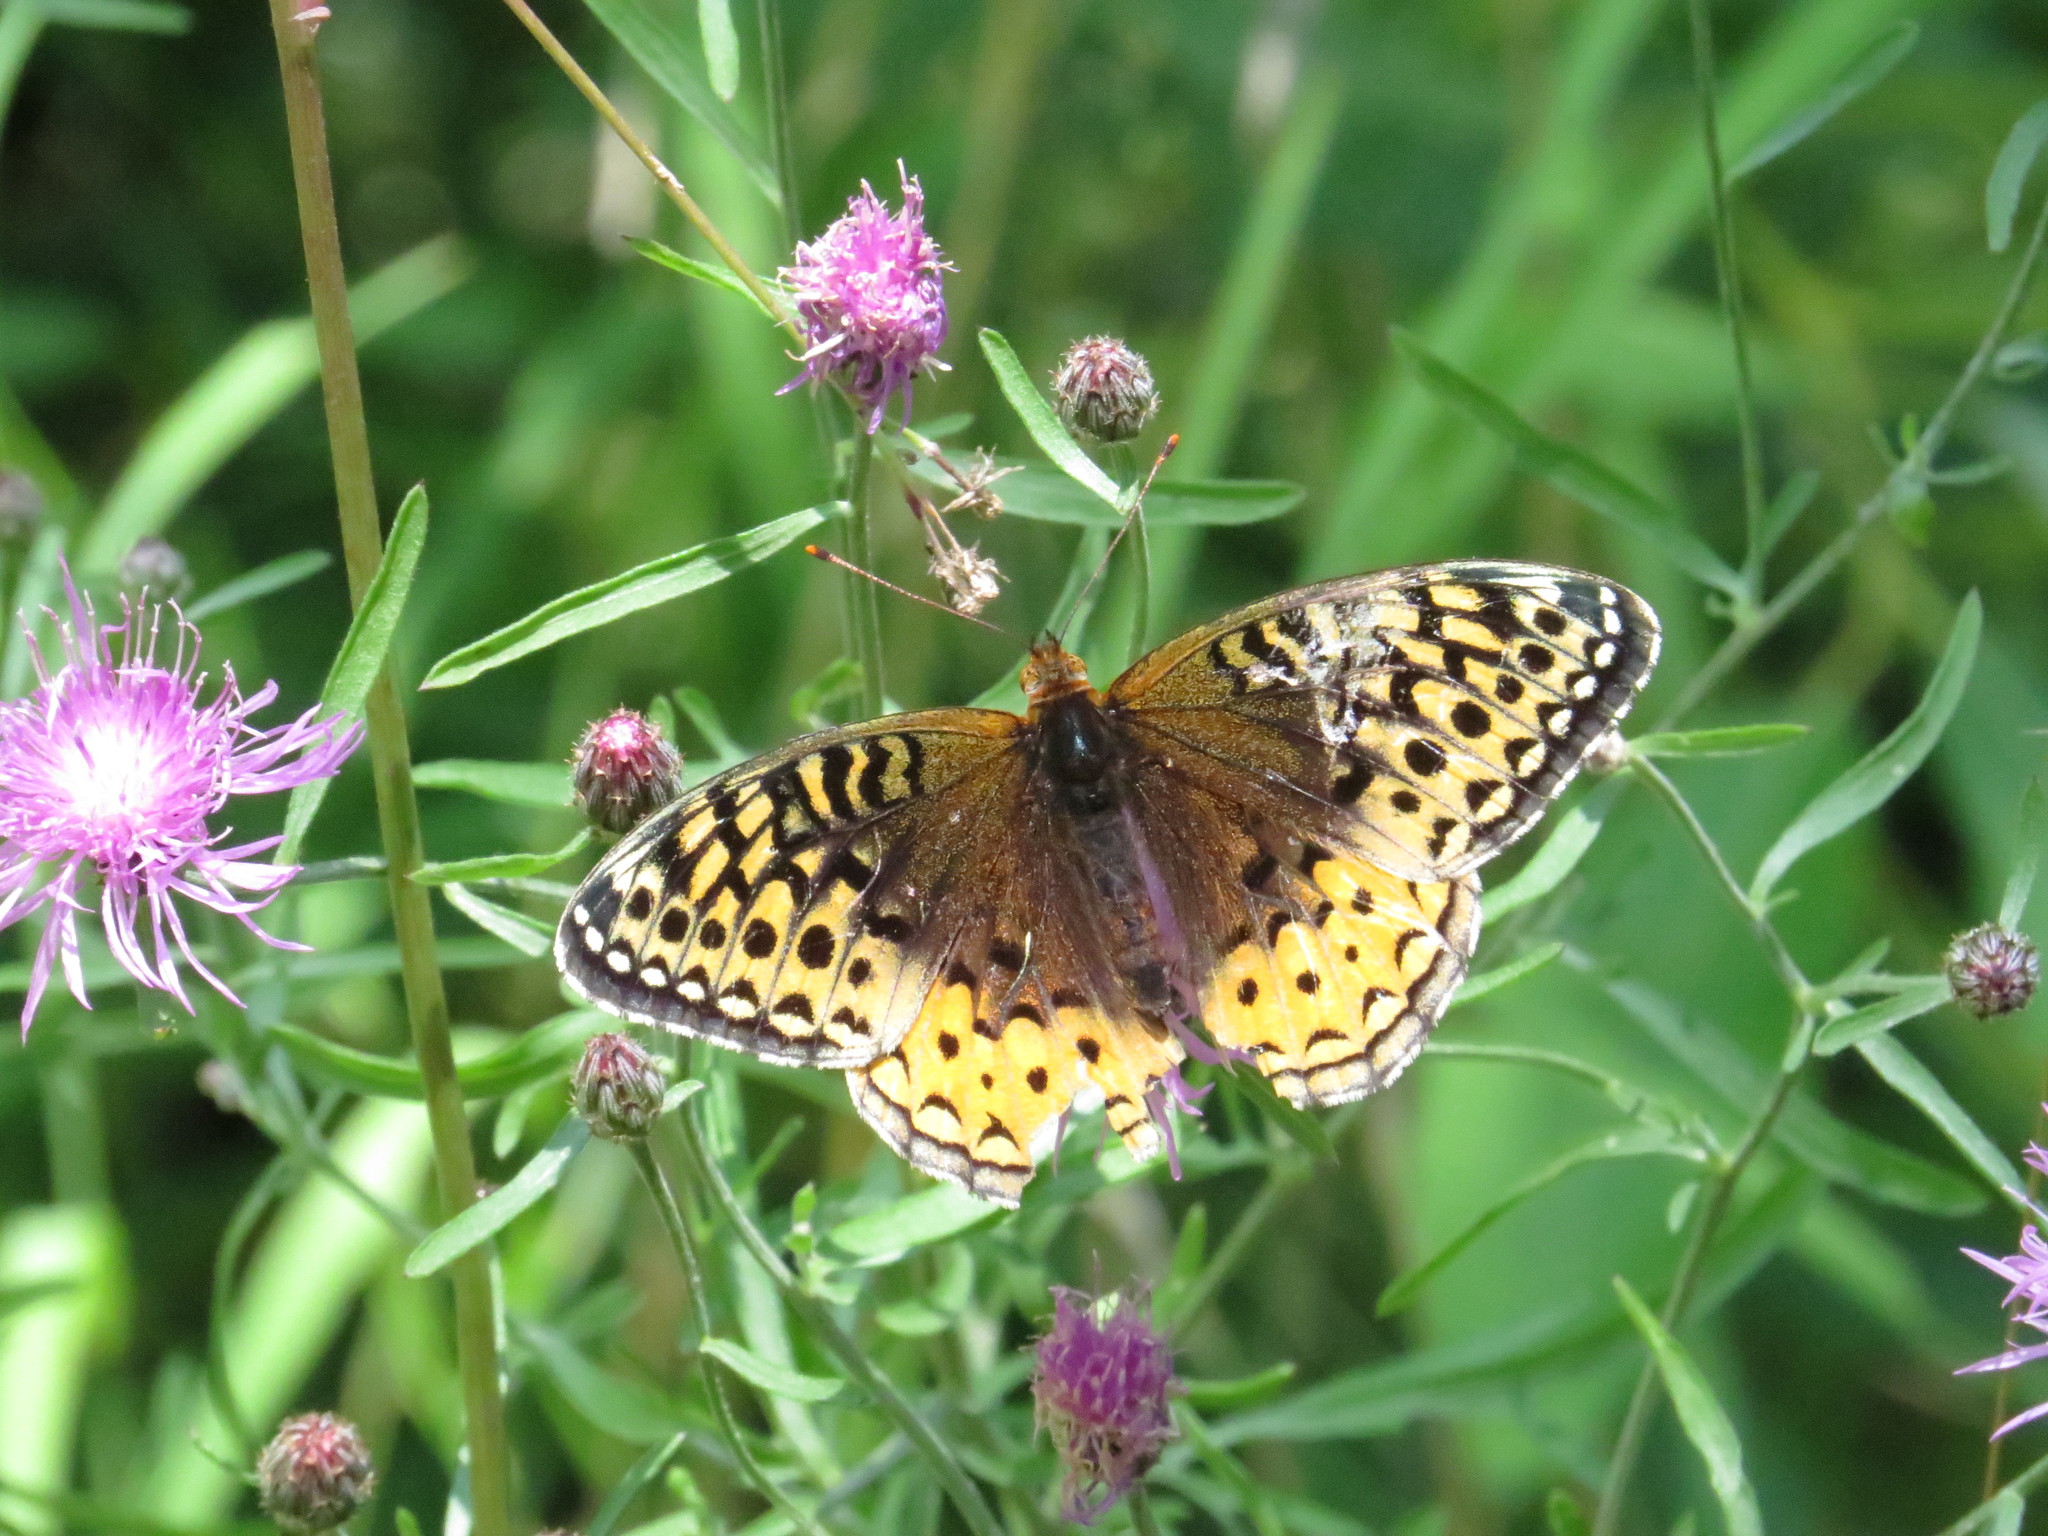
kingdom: Animalia
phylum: Arthropoda
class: Insecta
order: Lepidoptera
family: Nymphalidae
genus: Speyeria
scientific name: Speyeria cybele
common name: Great spangled fritillary
